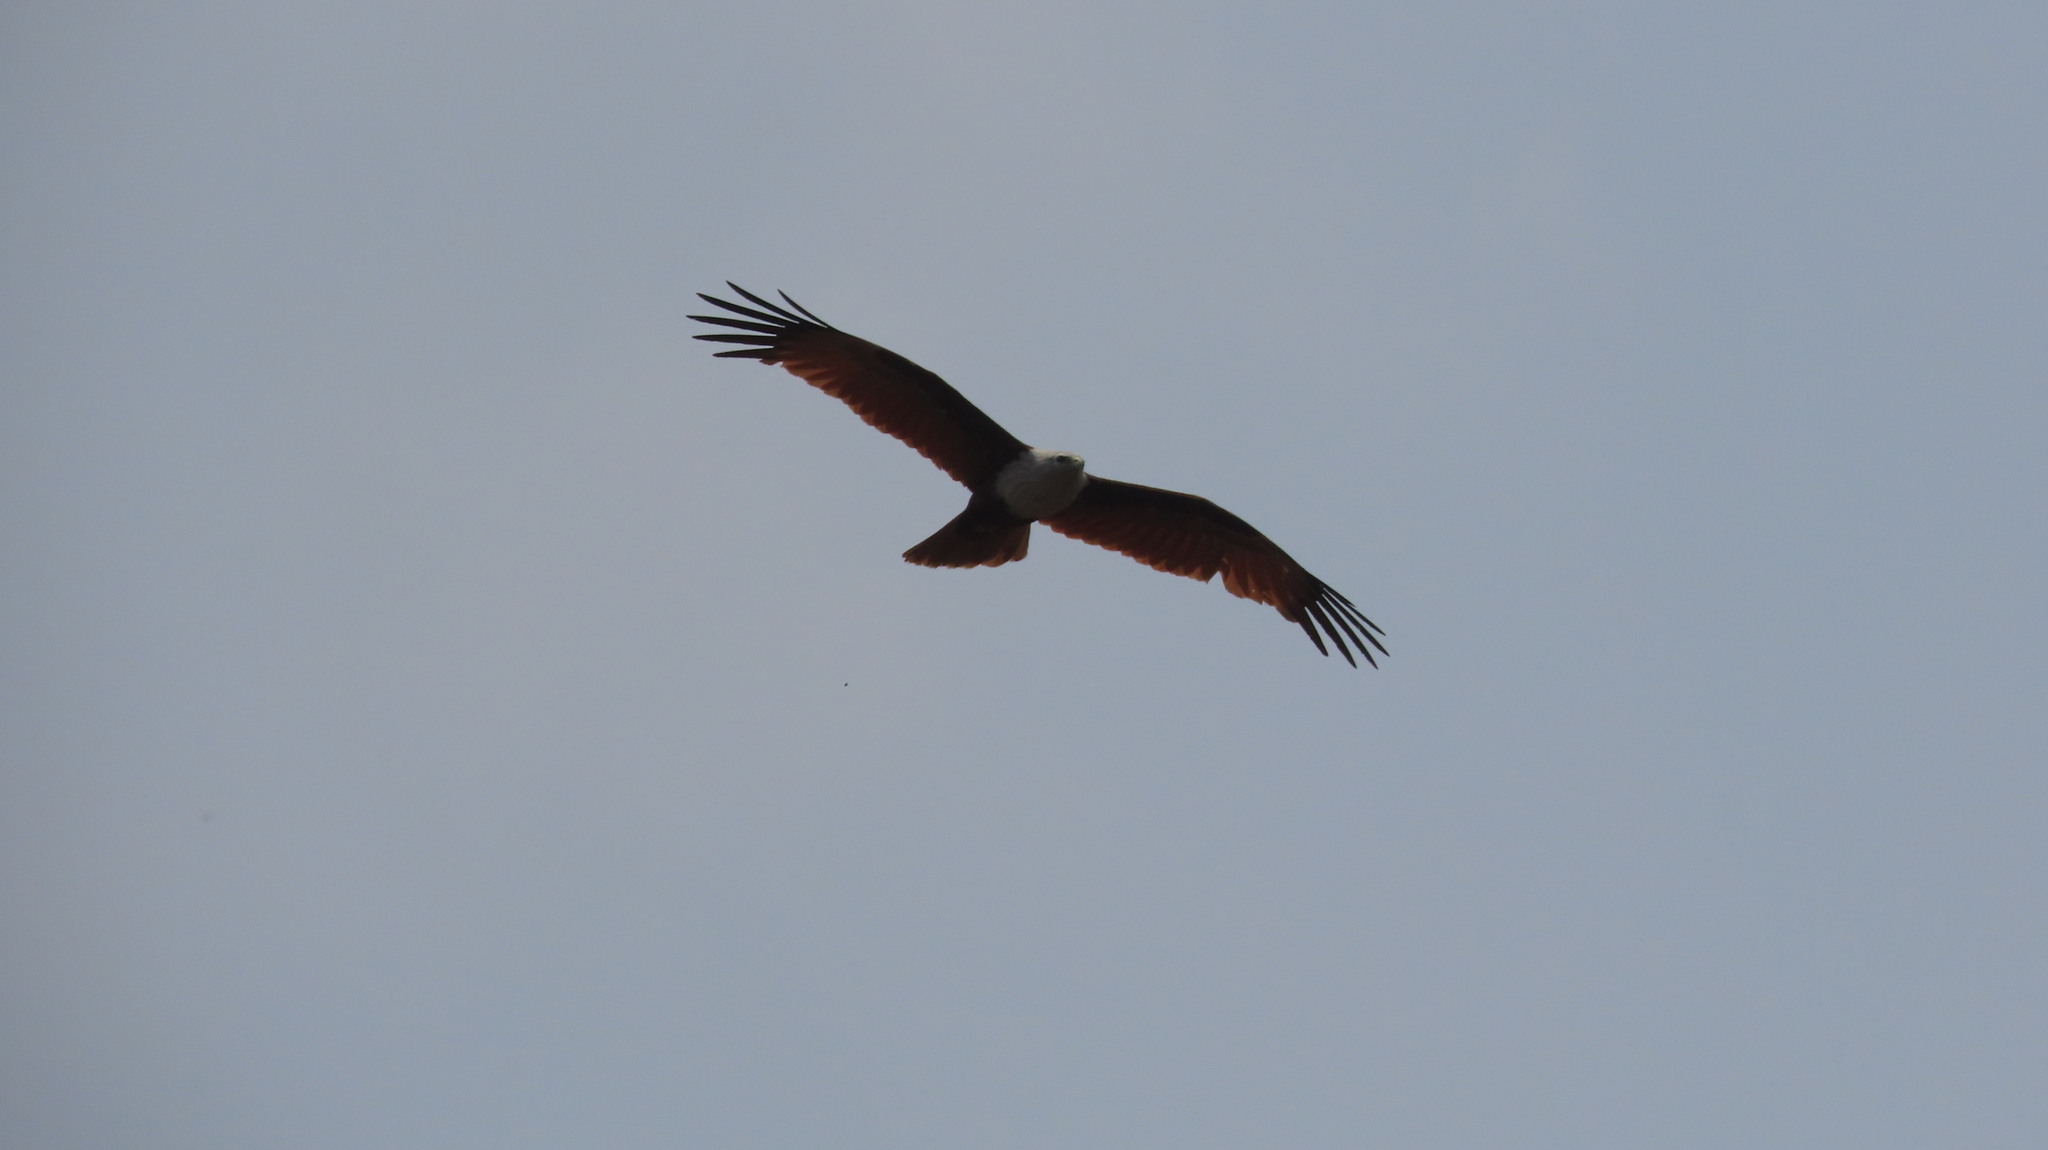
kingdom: Animalia
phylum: Chordata
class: Aves
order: Accipitriformes
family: Accipitridae
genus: Haliastur
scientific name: Haliastur indus
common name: Brahminy kite
